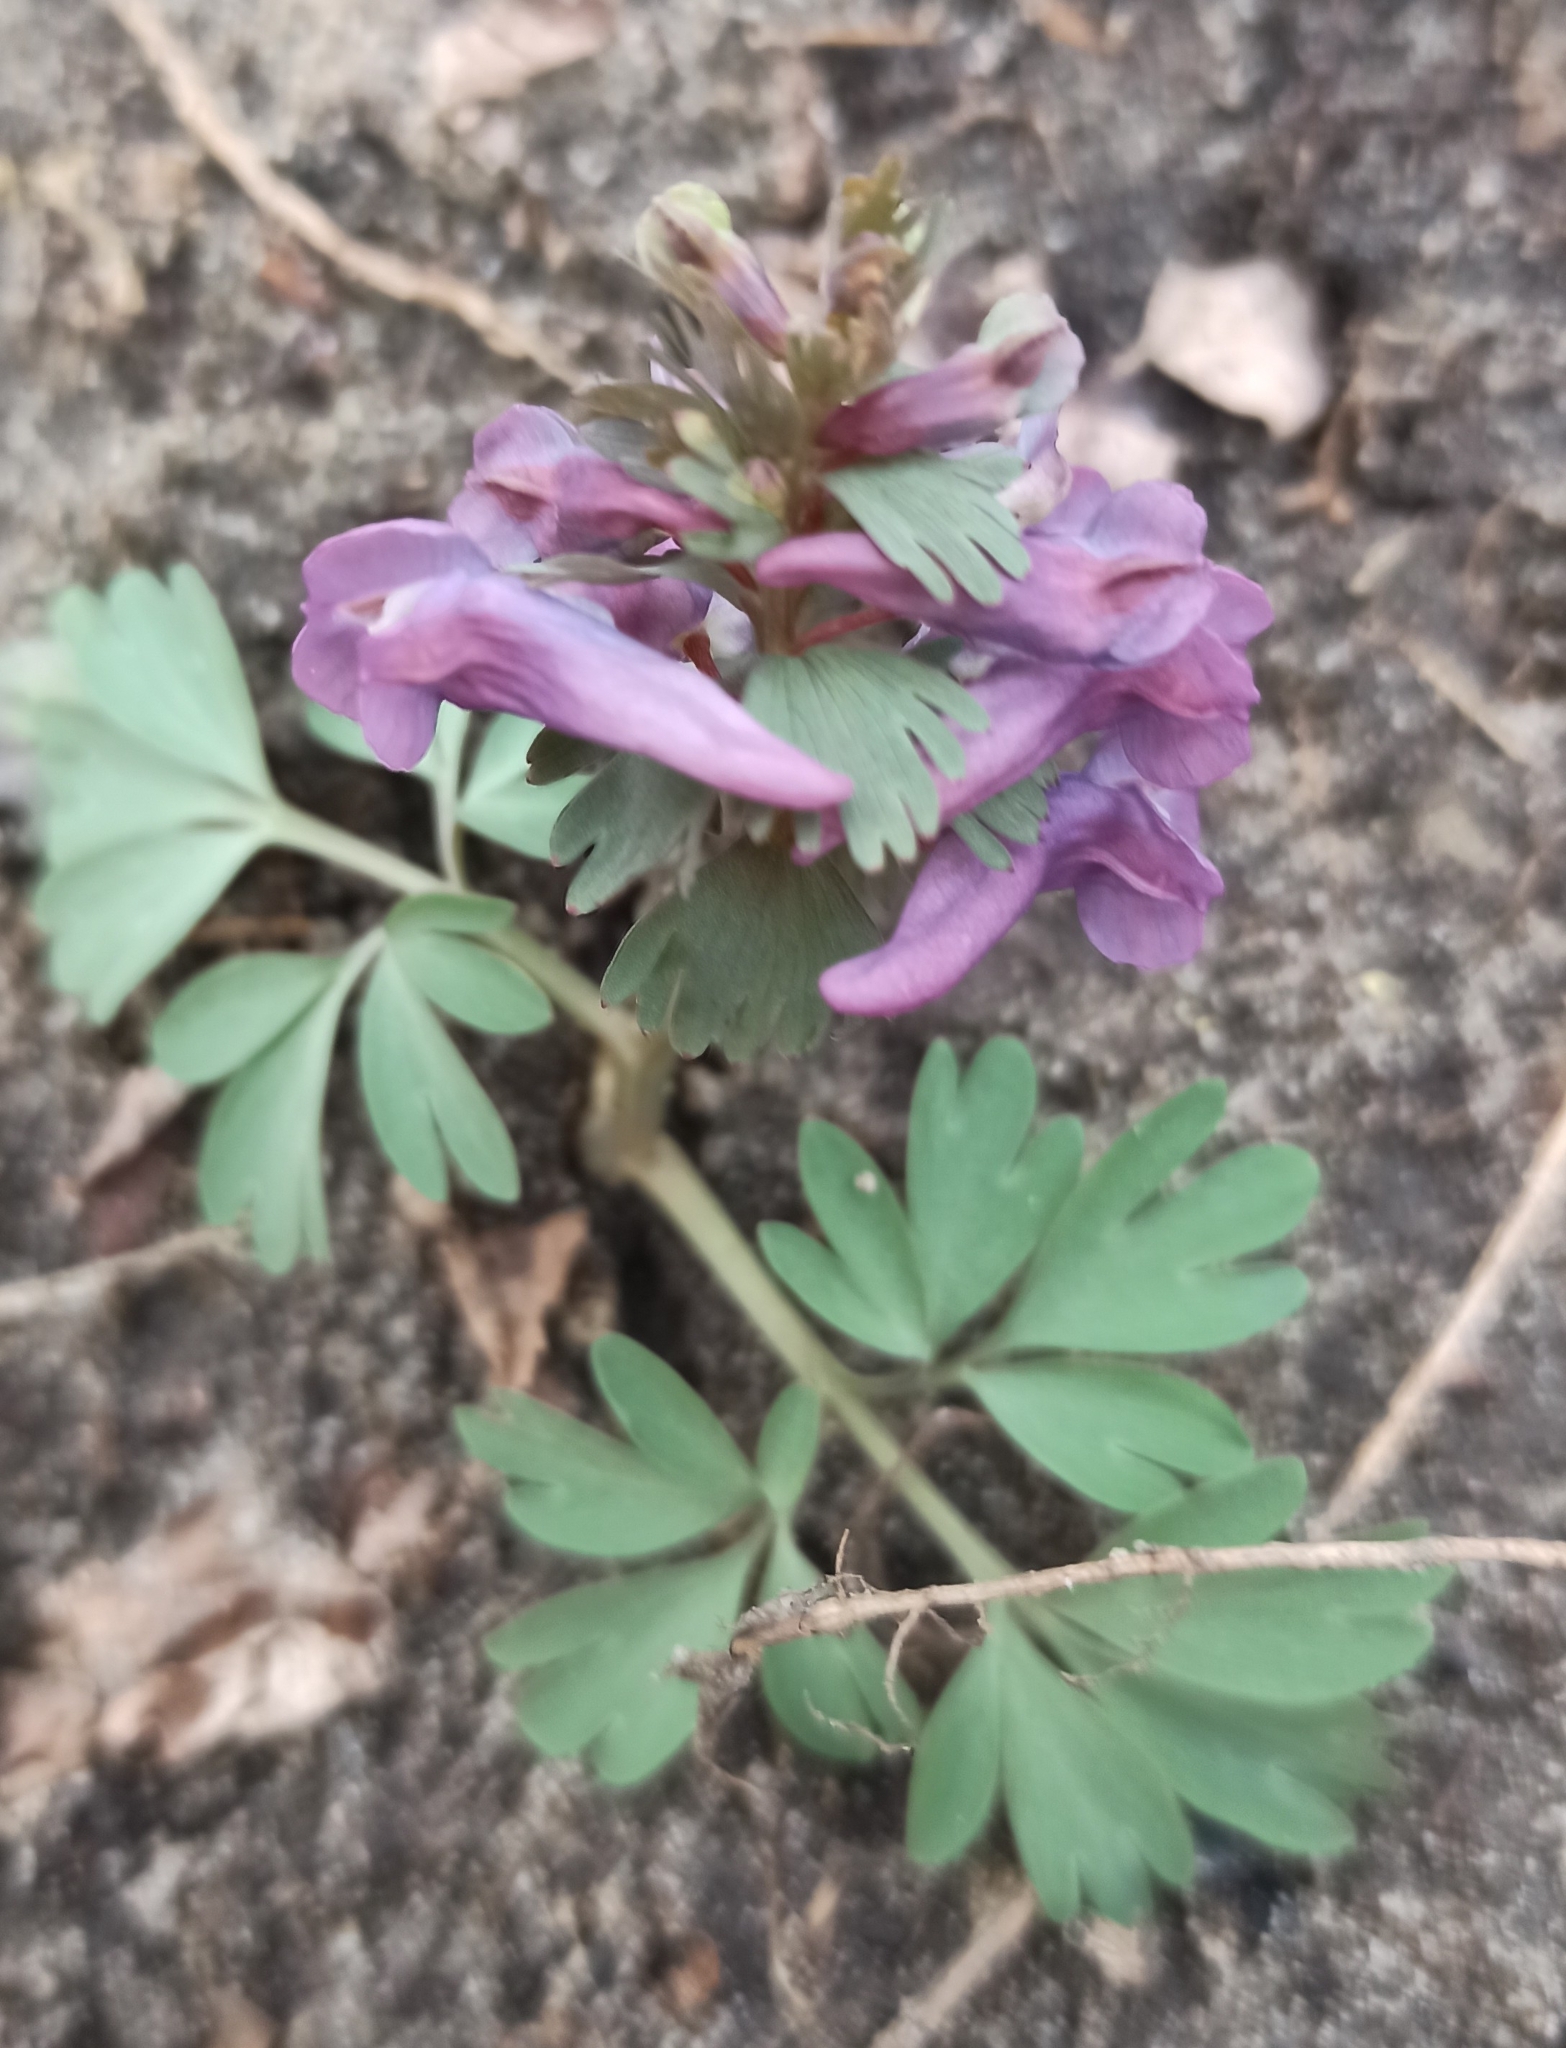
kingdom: Plantae
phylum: Tracheophyta
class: Magnoliopsida
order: Ranunculales
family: Papaveraceae
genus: Corydalis
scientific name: Corydalis solida
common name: Bird-in-a-bush
